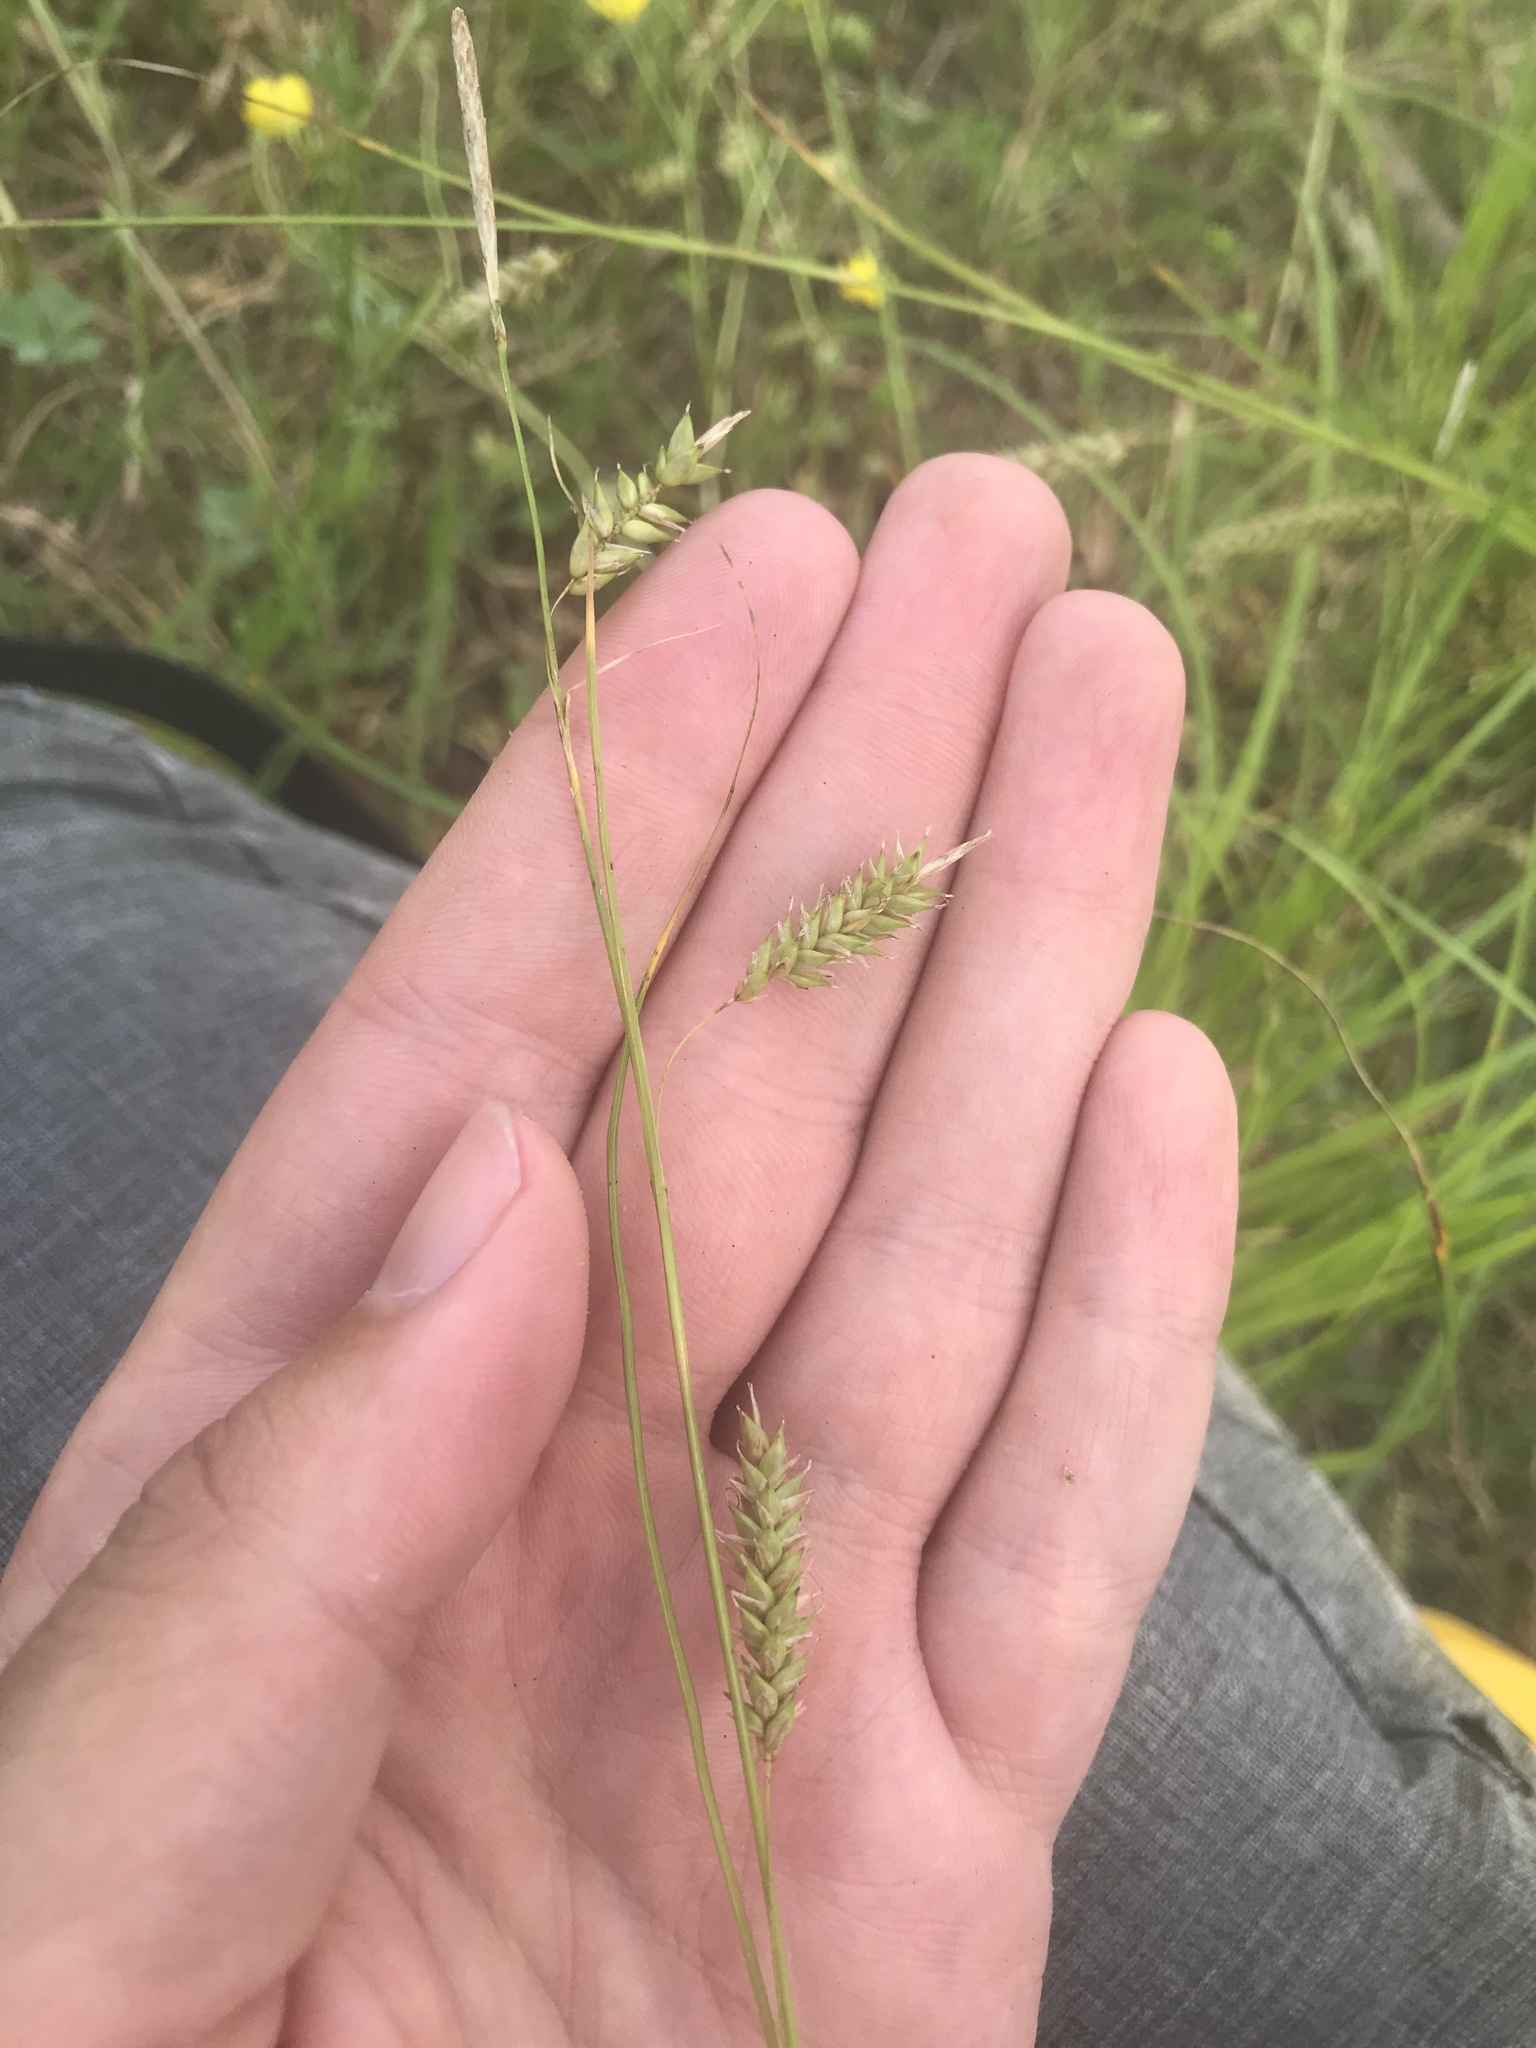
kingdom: Plantae
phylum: Tracheophyta
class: Liliopsida
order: Poales
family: Cyperaceae
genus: Carex
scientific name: Carex cherokeensis
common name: Cherokee sedge
